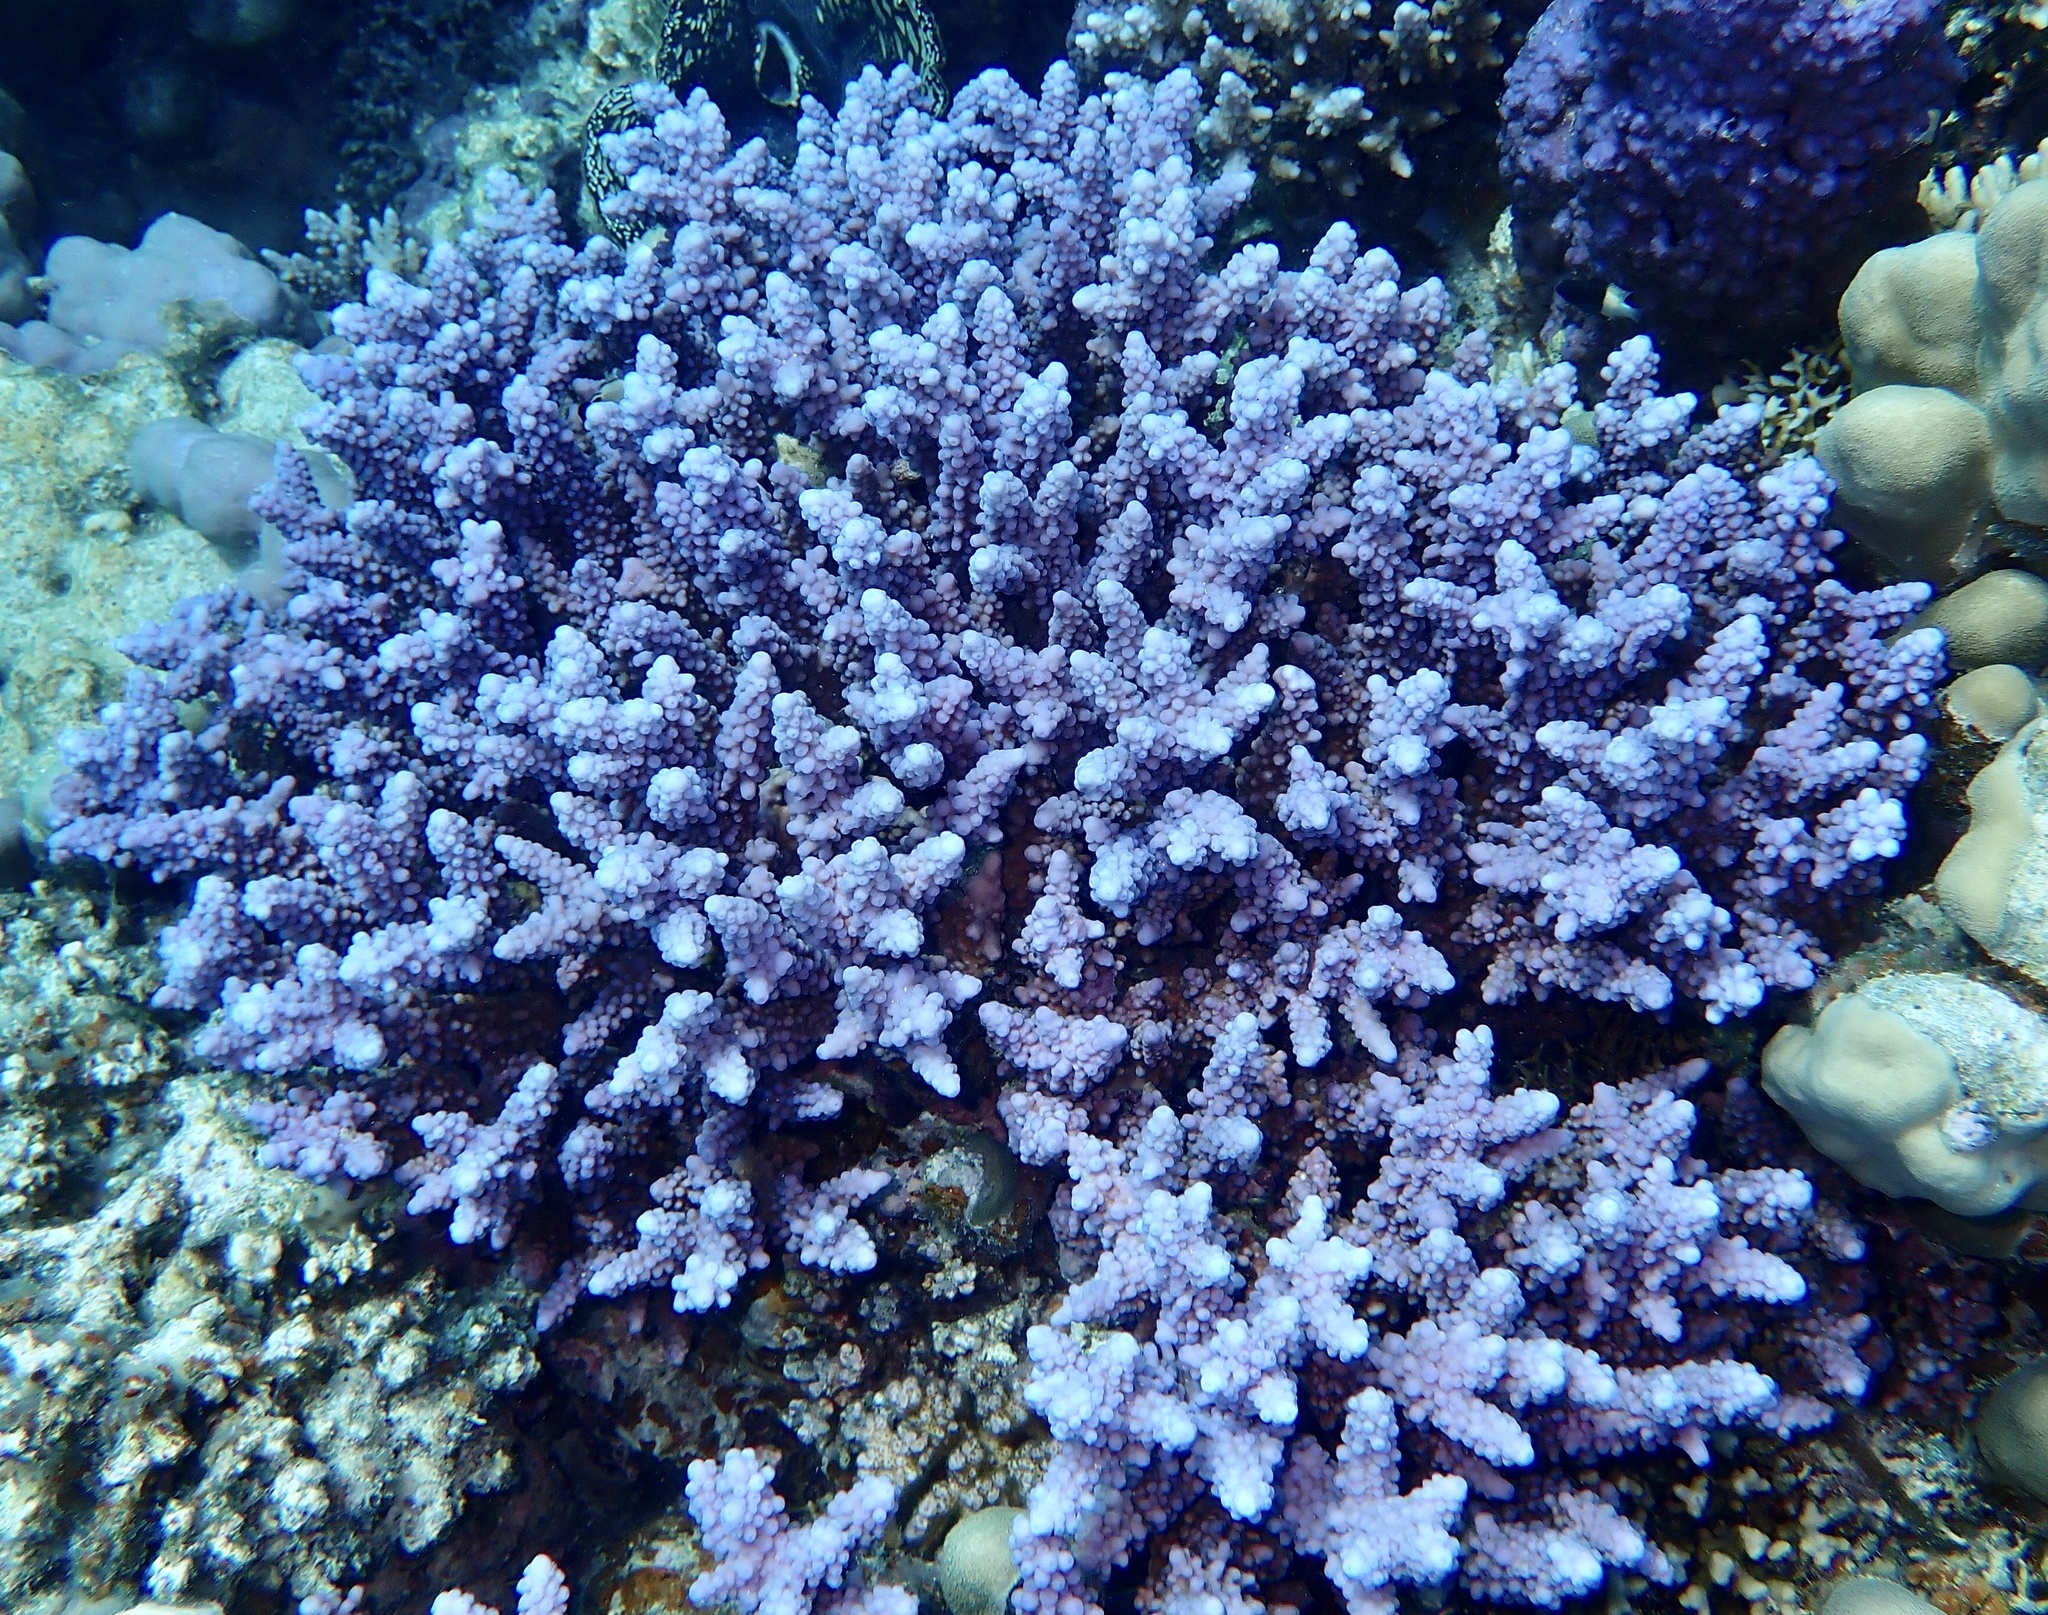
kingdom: Animalia
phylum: Cnidaria
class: Anthozoa
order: Scleractinia
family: Acroporidae
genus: Acropora
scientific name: Acropora hemprichii
